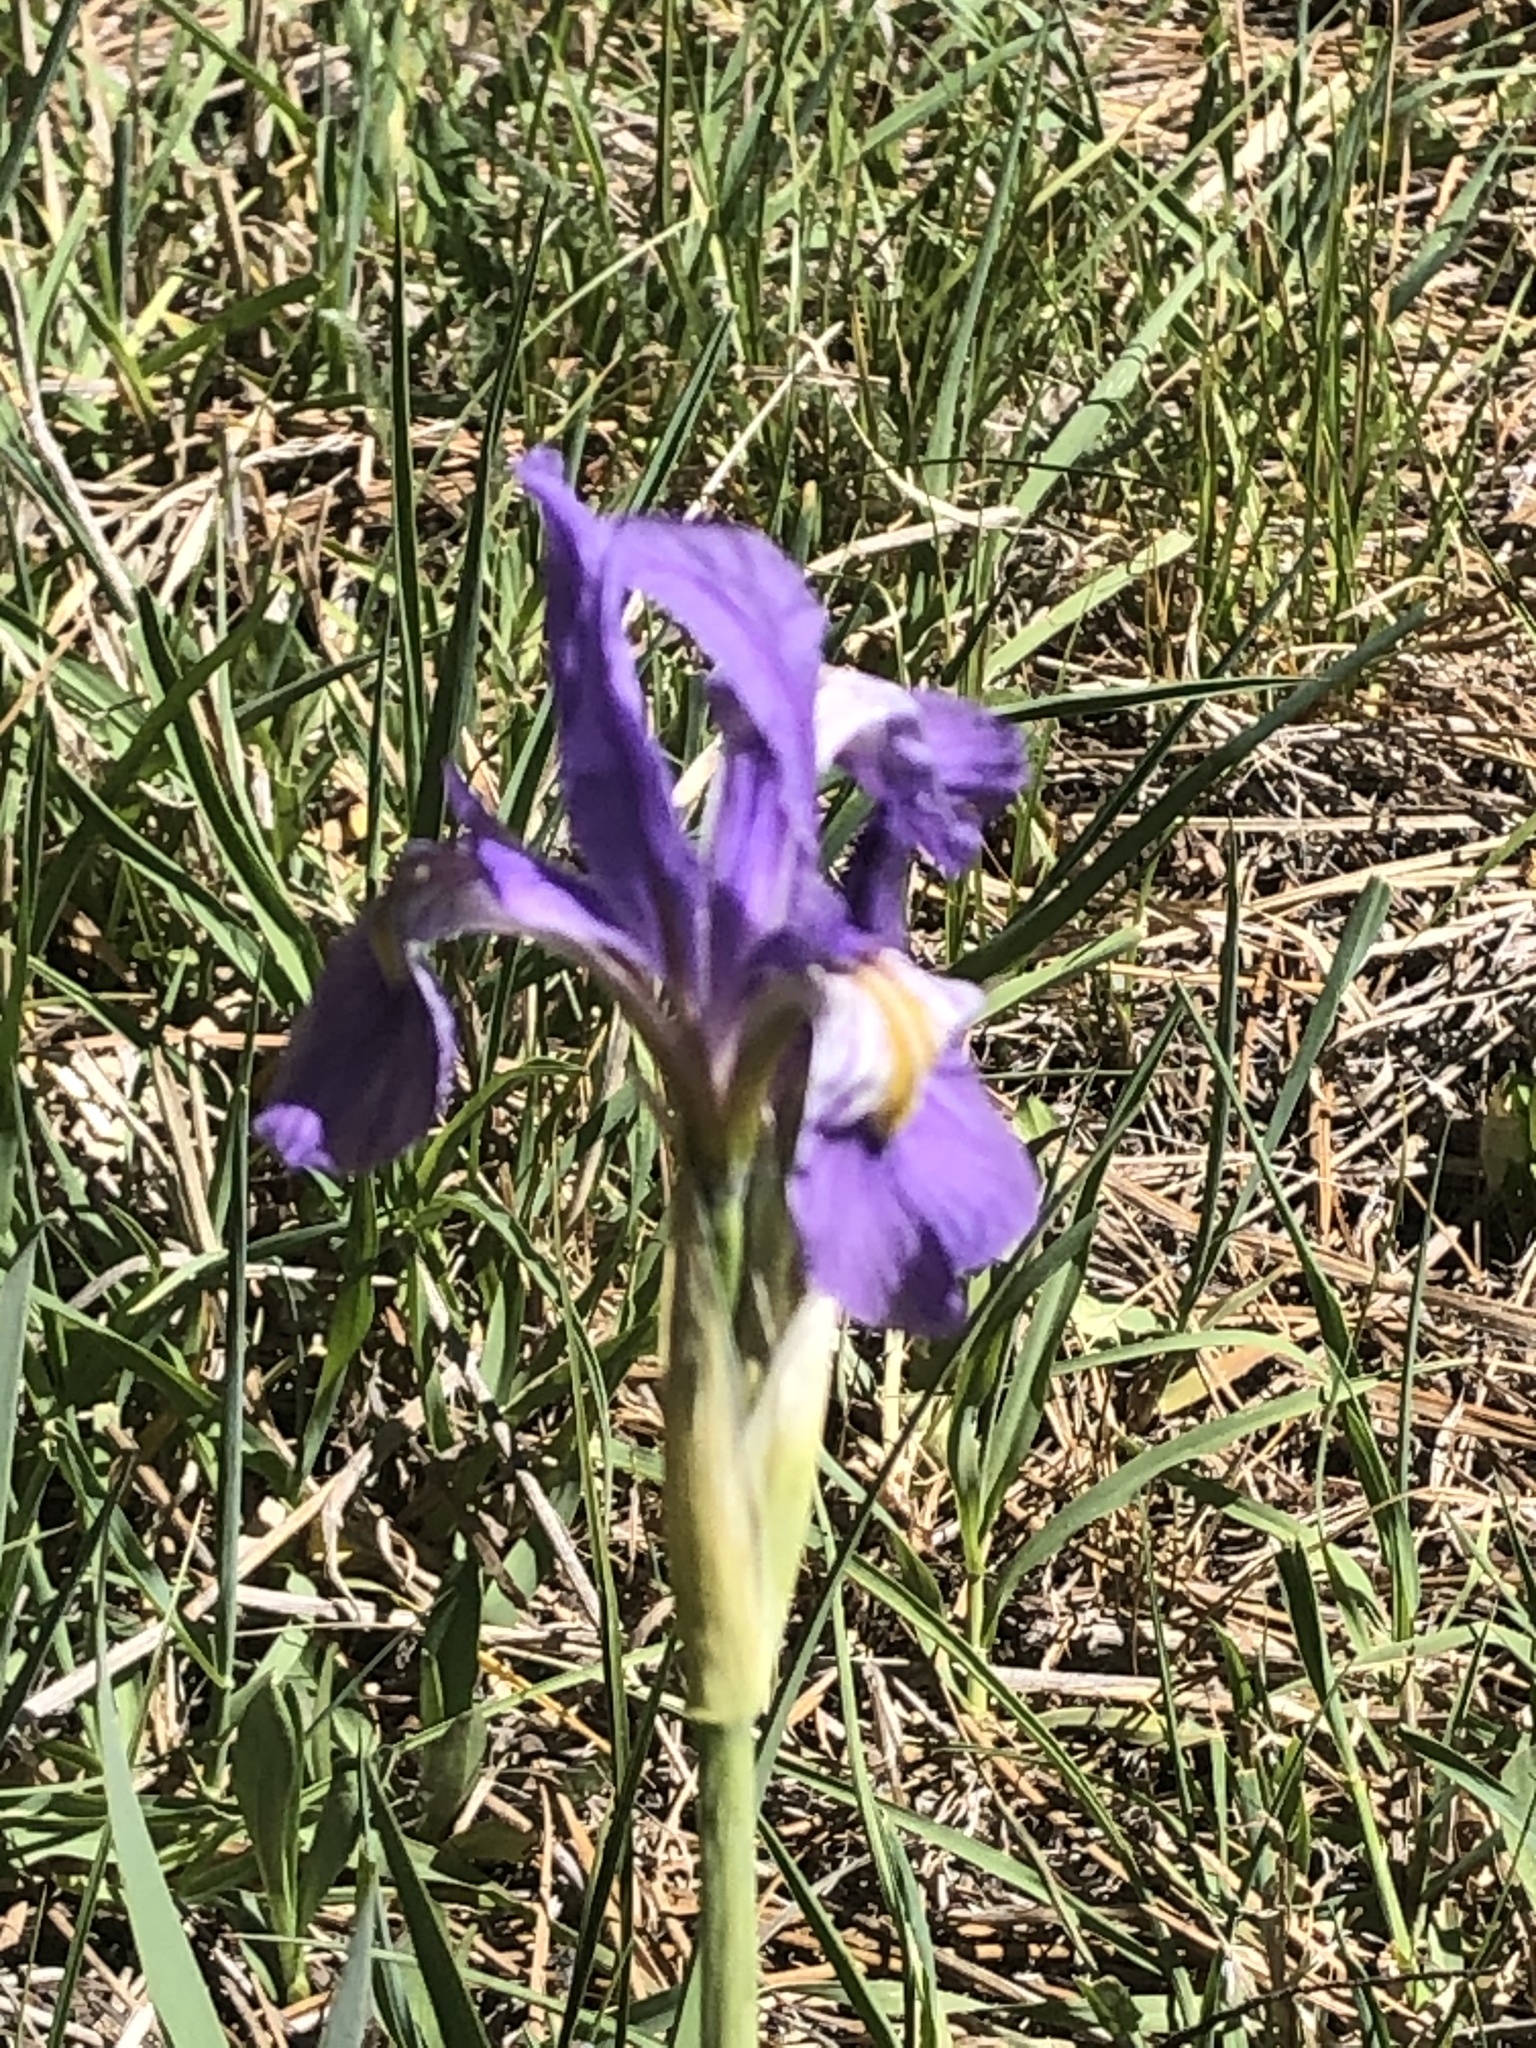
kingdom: Plantae
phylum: Tracheophyta
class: Liliopsida
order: Asparagales
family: Iridaceae
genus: Iris
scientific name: Iris missouriensis
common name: Rocky mountain iris
